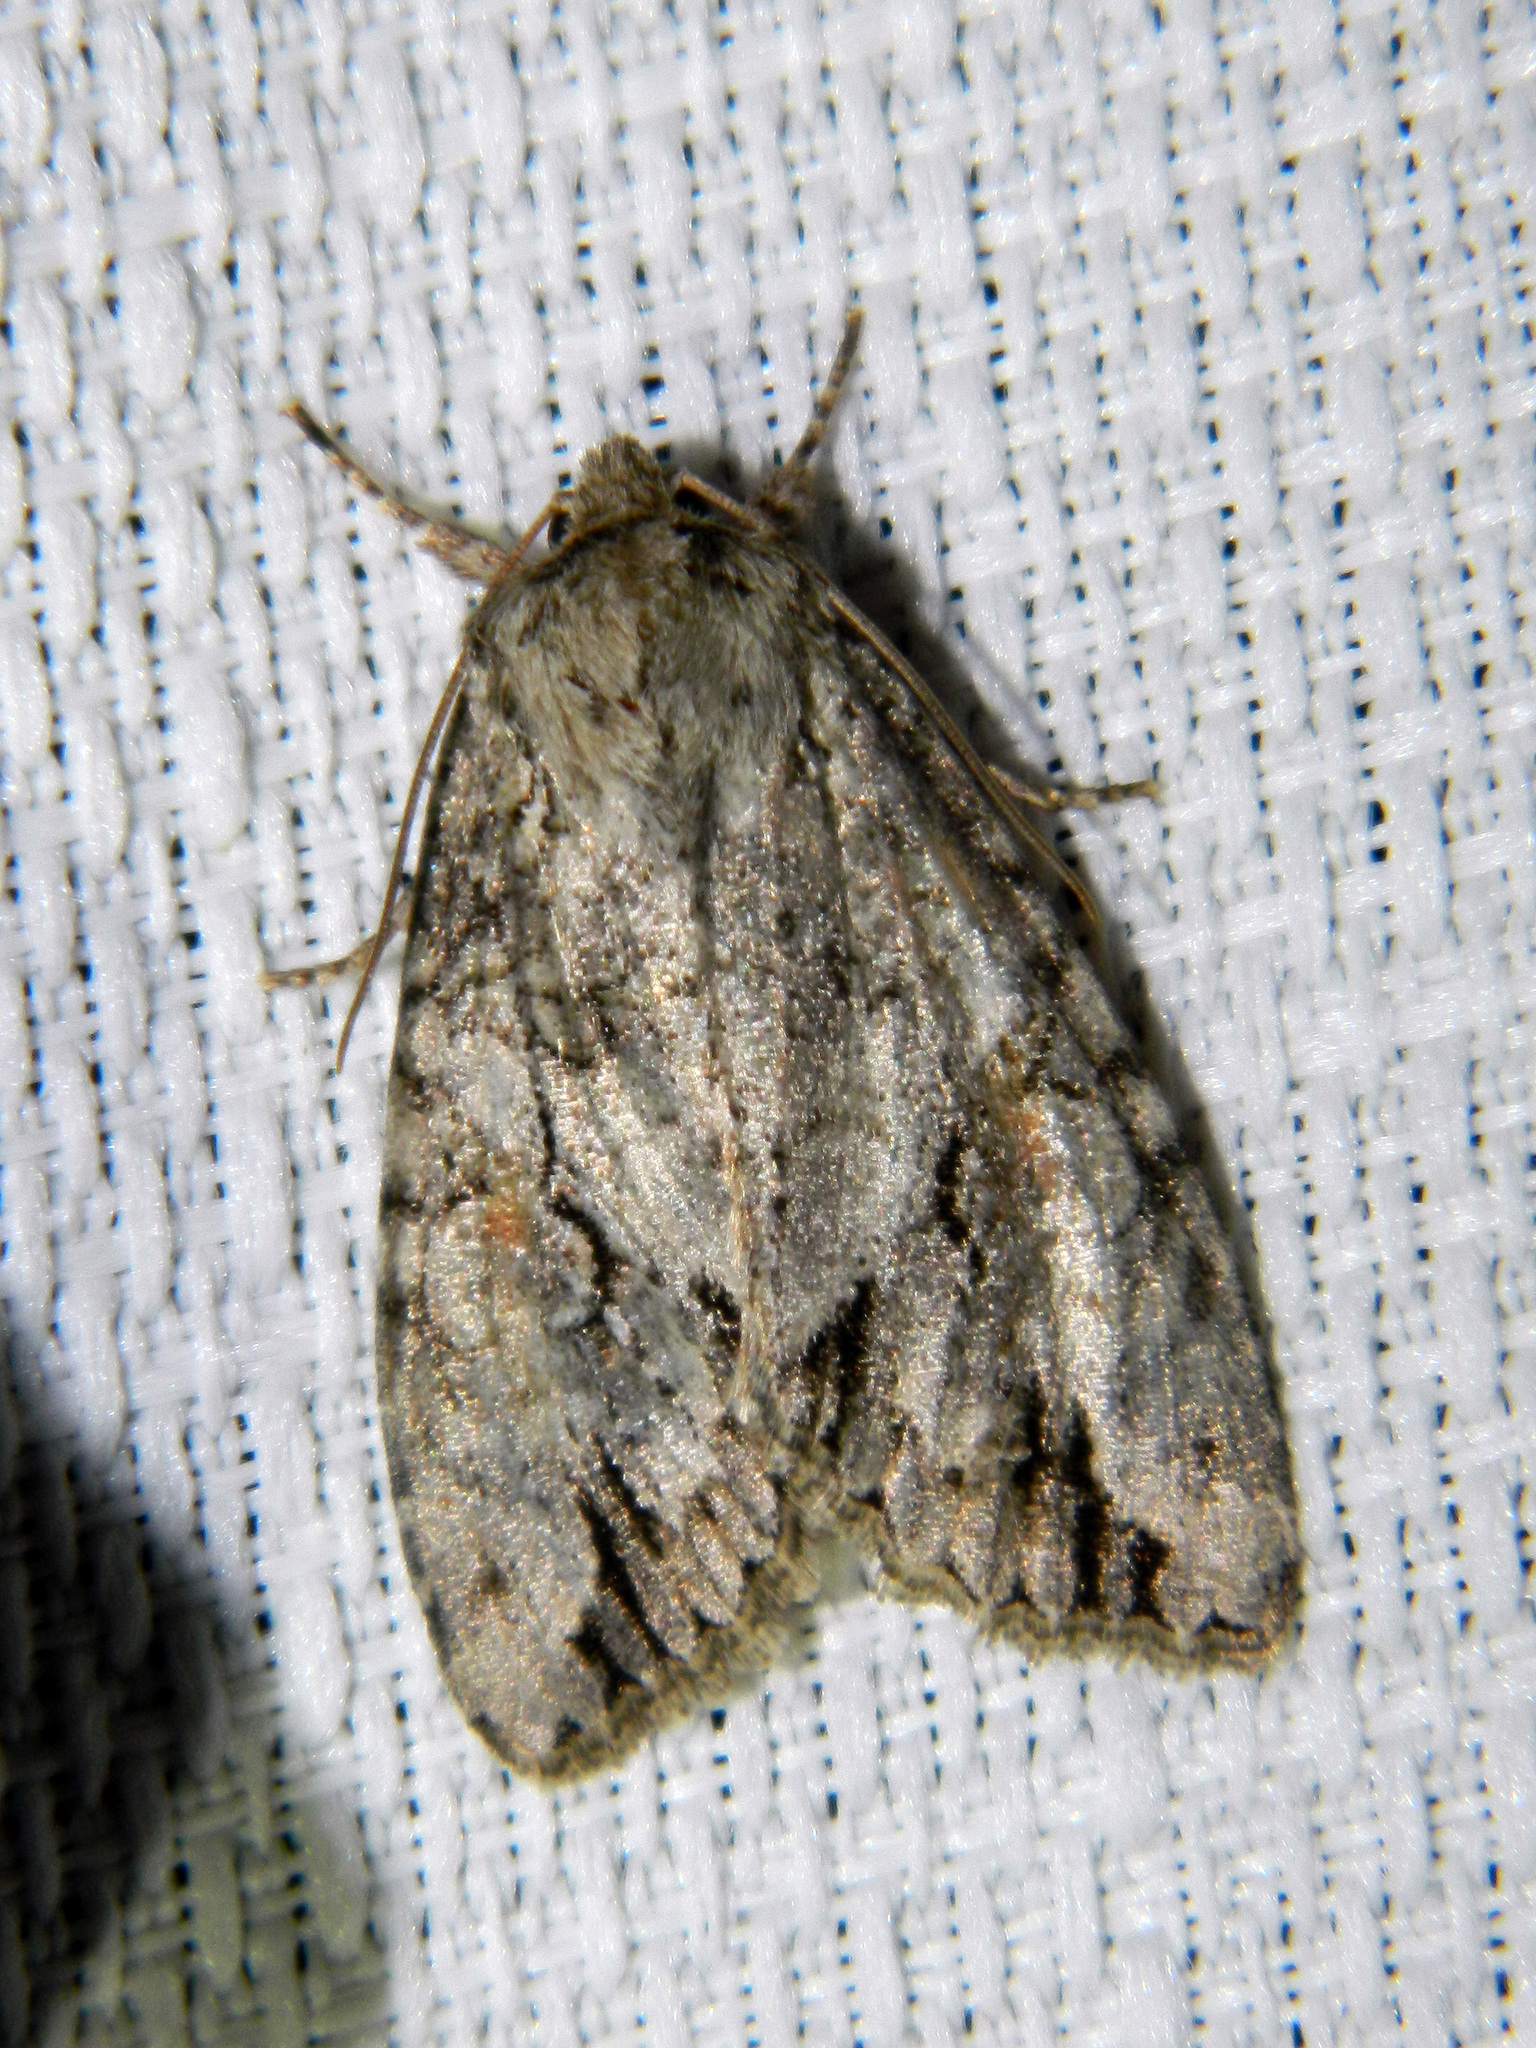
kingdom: Animalia
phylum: Arthropoda
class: Insecta
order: Lepidoptera
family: Noctuidae
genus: Achatia
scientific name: Achatia latex
